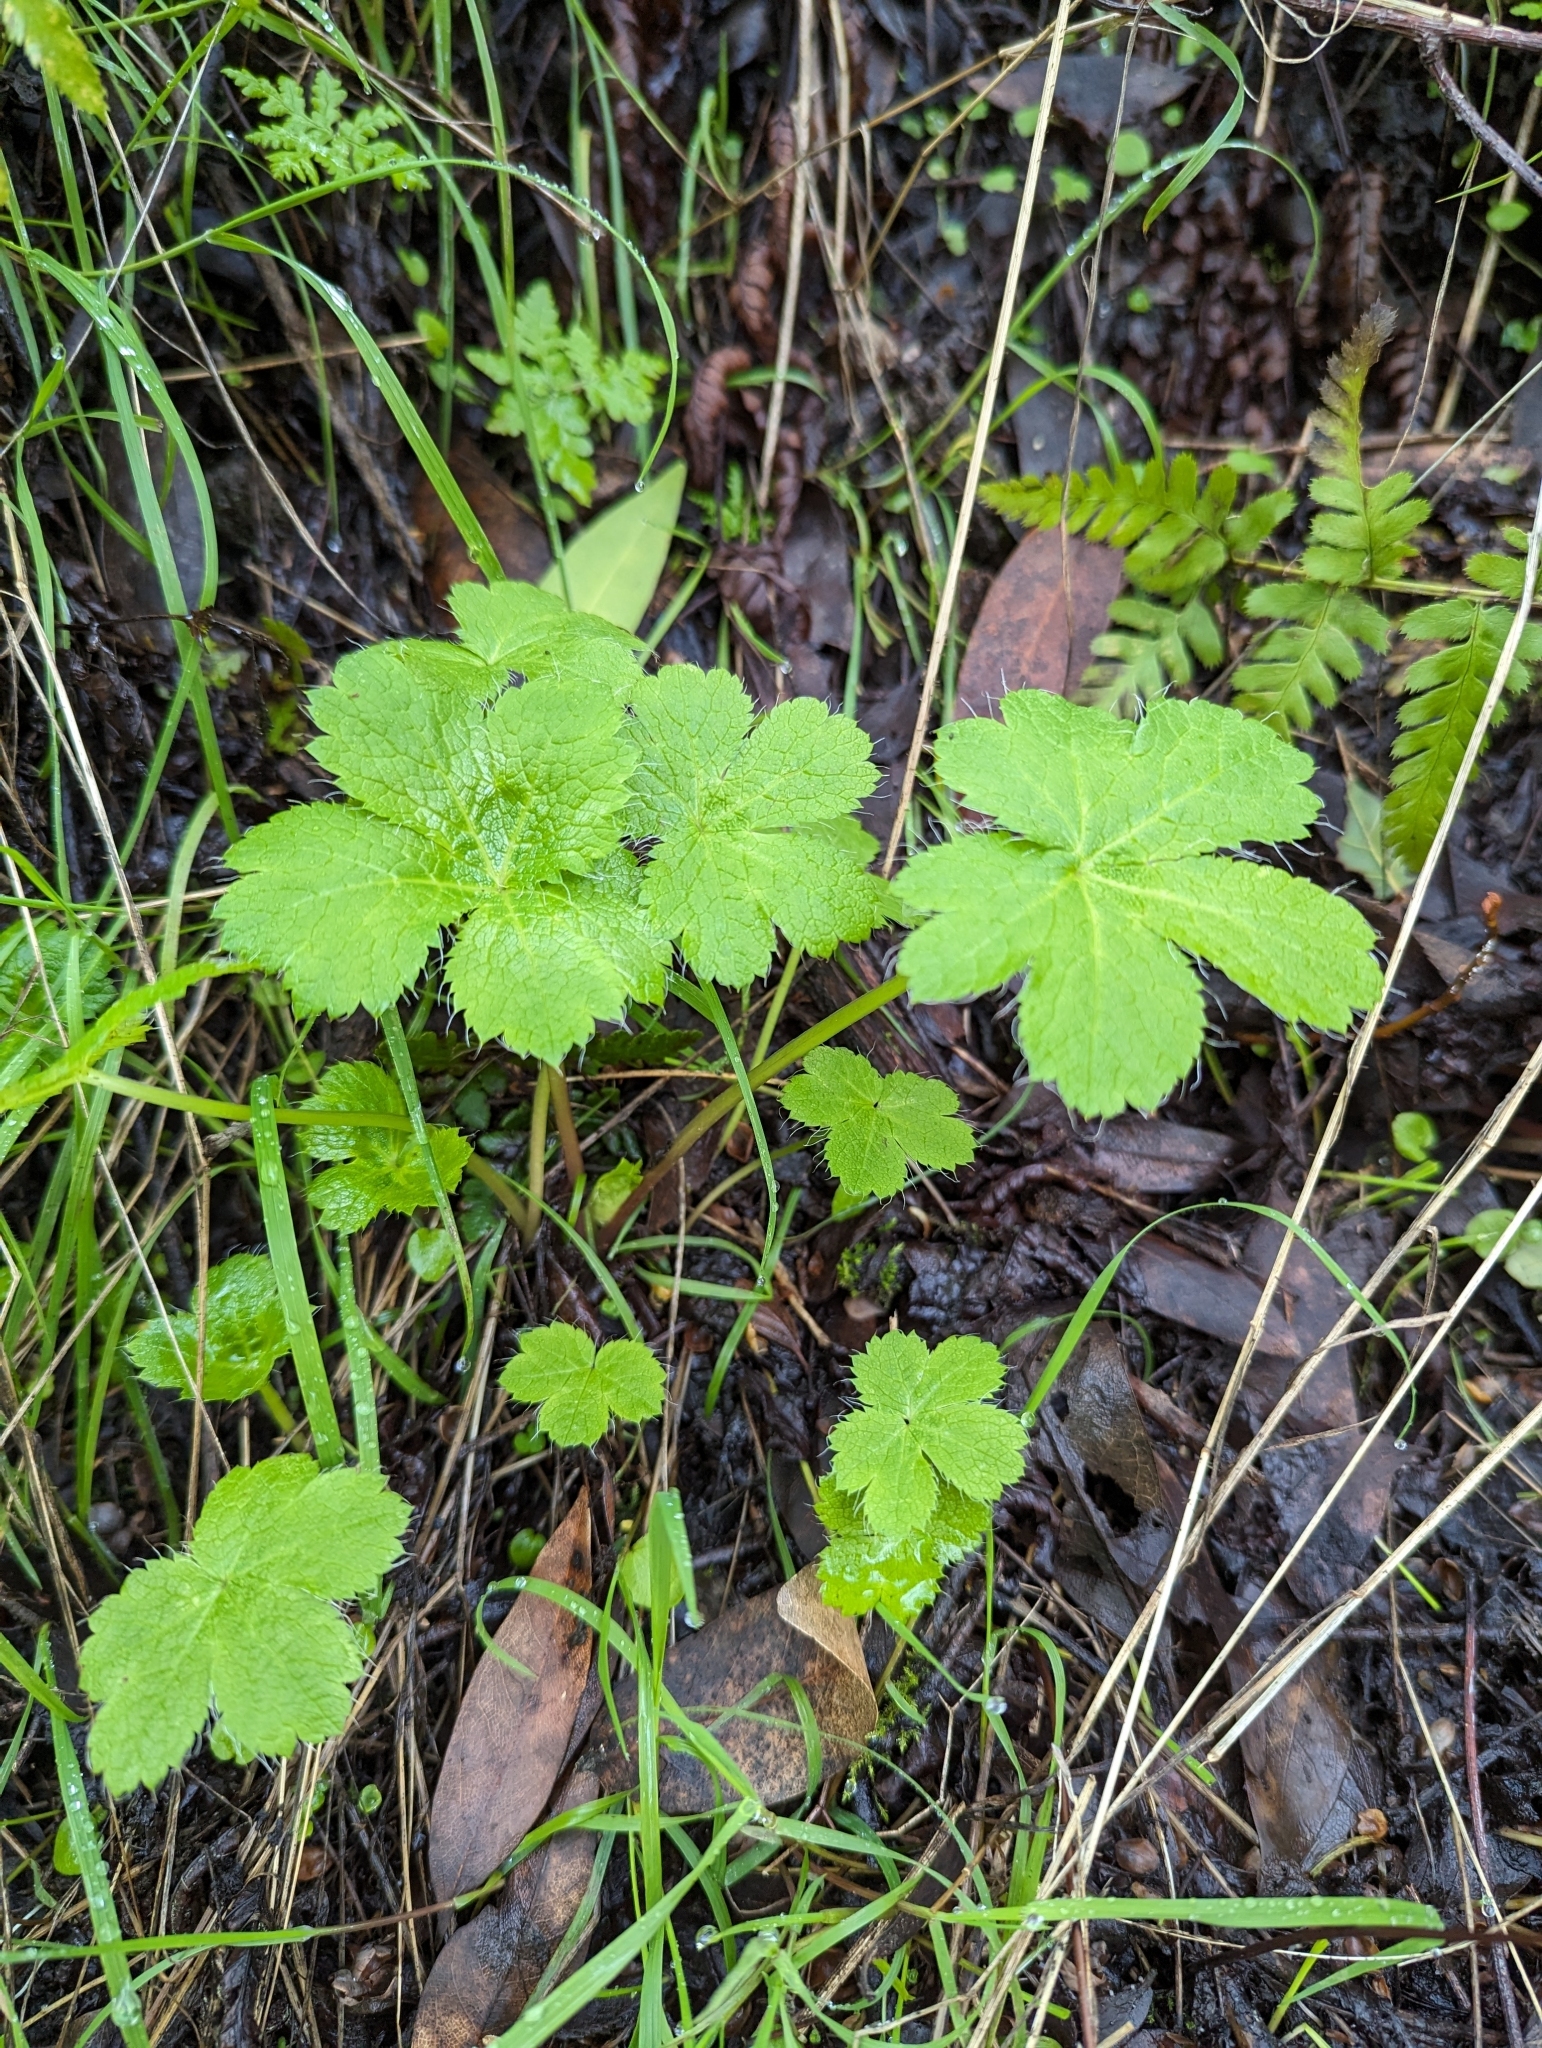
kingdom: Plantae
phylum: Tracheophyta
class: Magnoliopsida
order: Apiales
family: Apiaceae
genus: Sanicula
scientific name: Sanicula crassicaulis
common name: Western snakeroot
